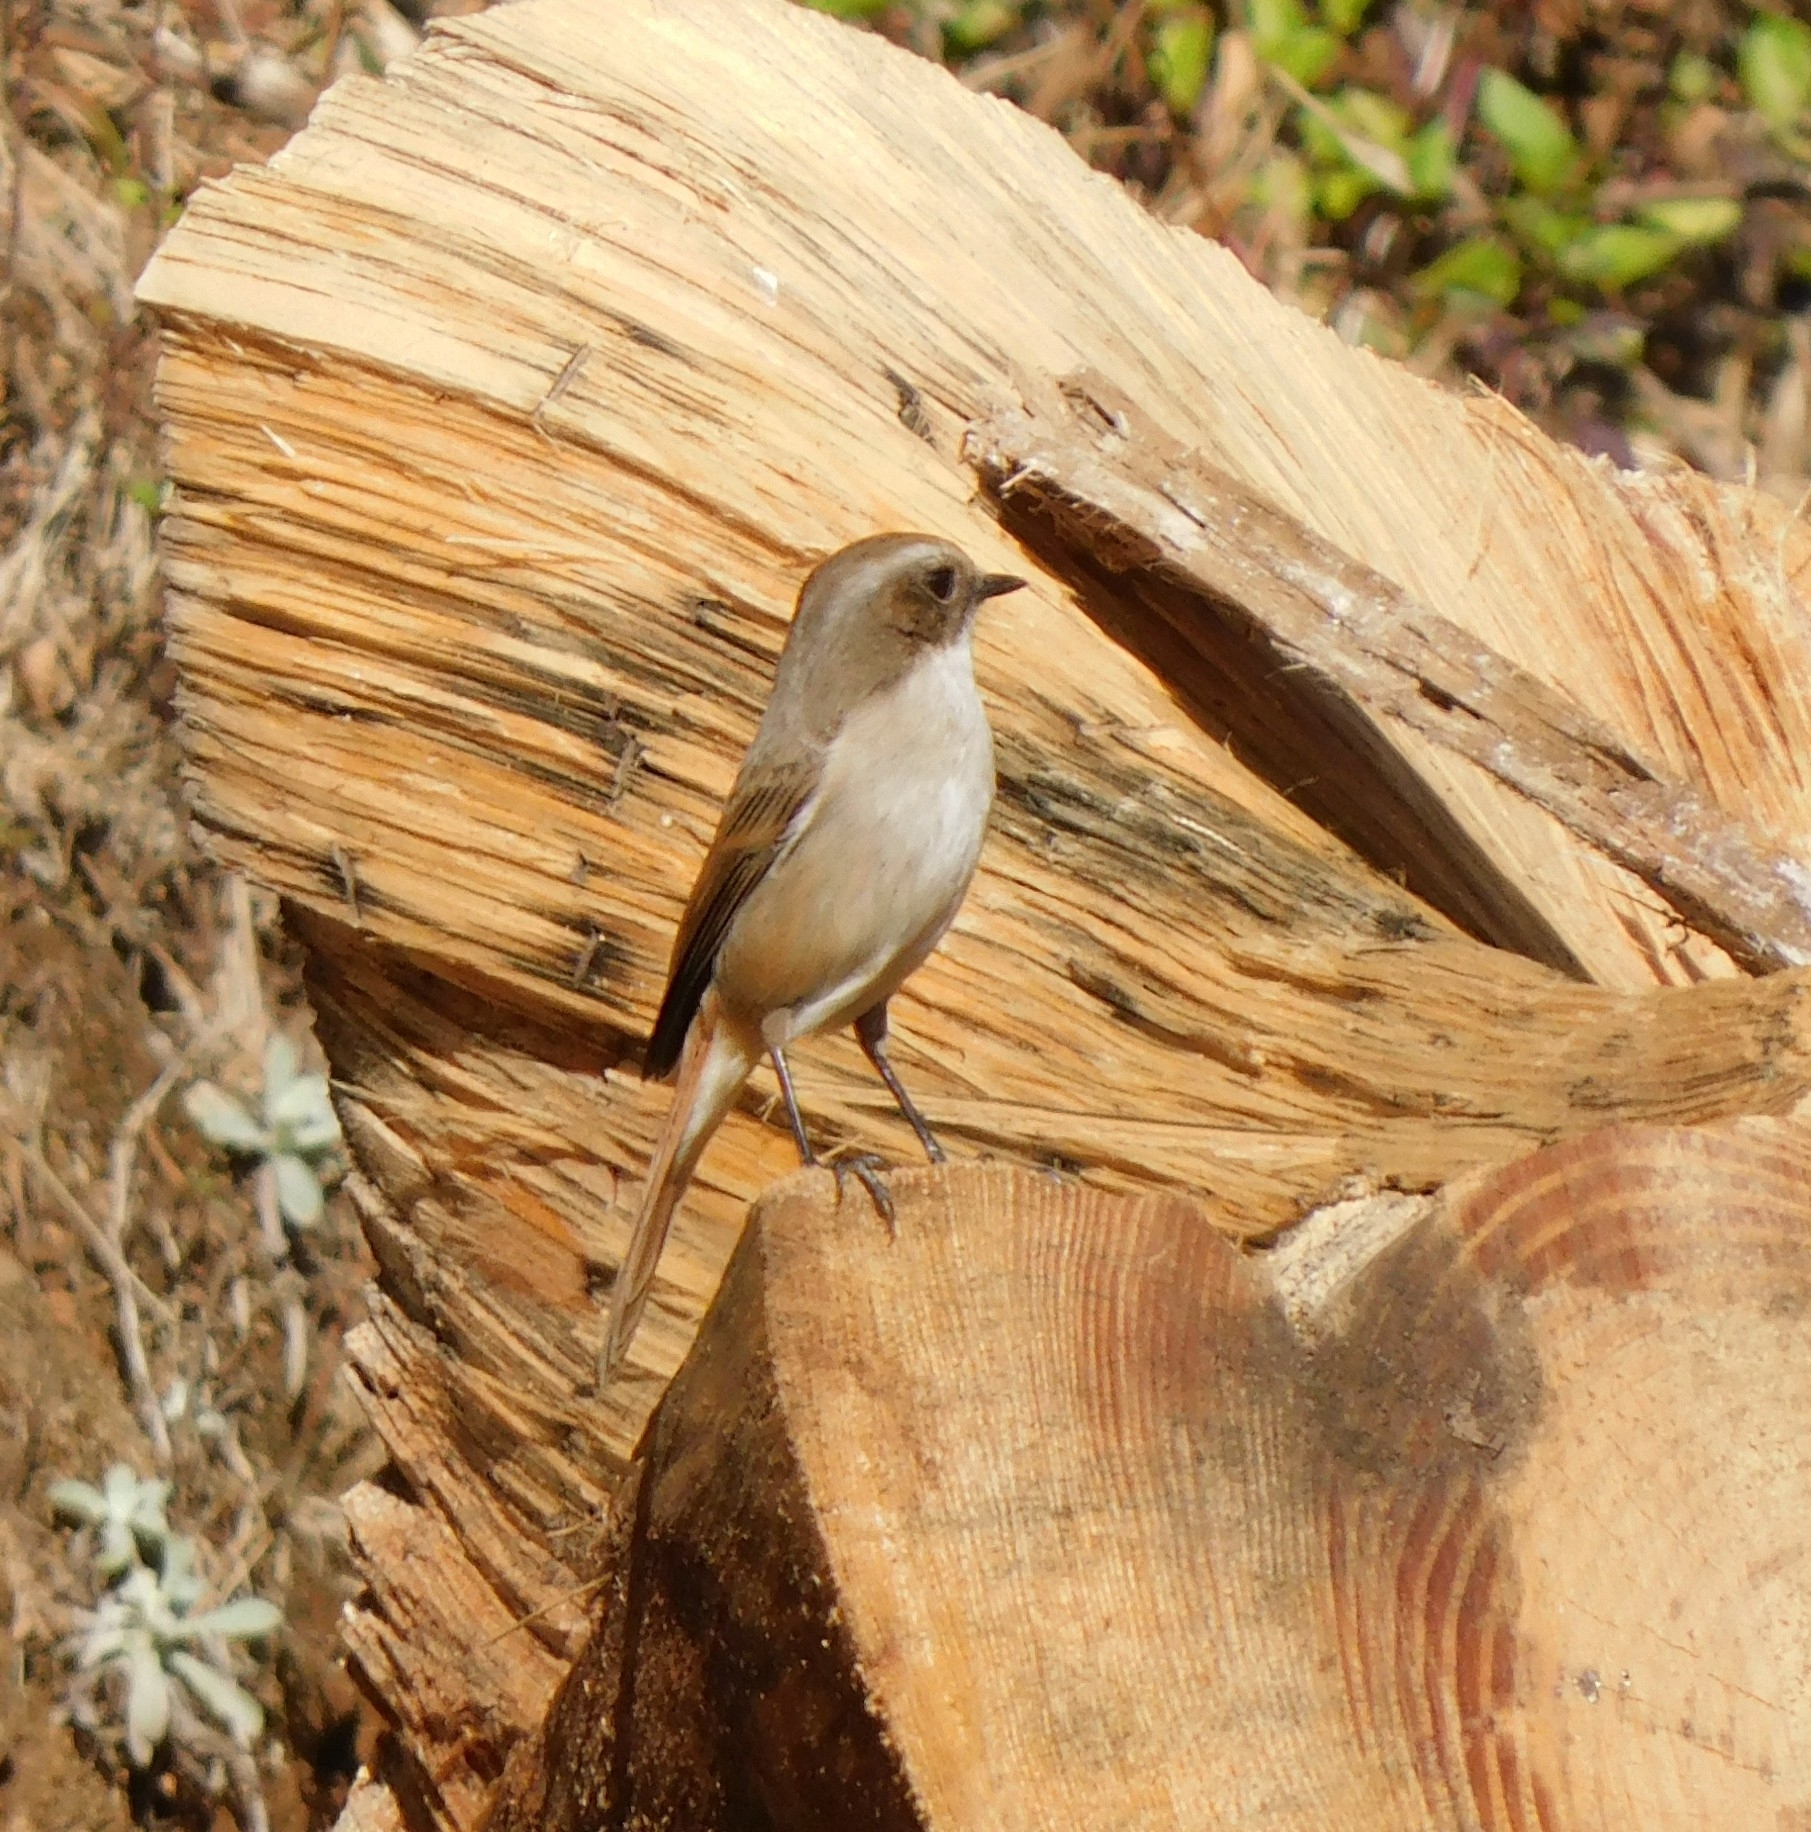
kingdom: Animalia
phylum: Chordata
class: Aves
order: Passeriformes
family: Muscicapidae
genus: Saxicola
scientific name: Saxicola ferreus
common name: Grey bush chat
